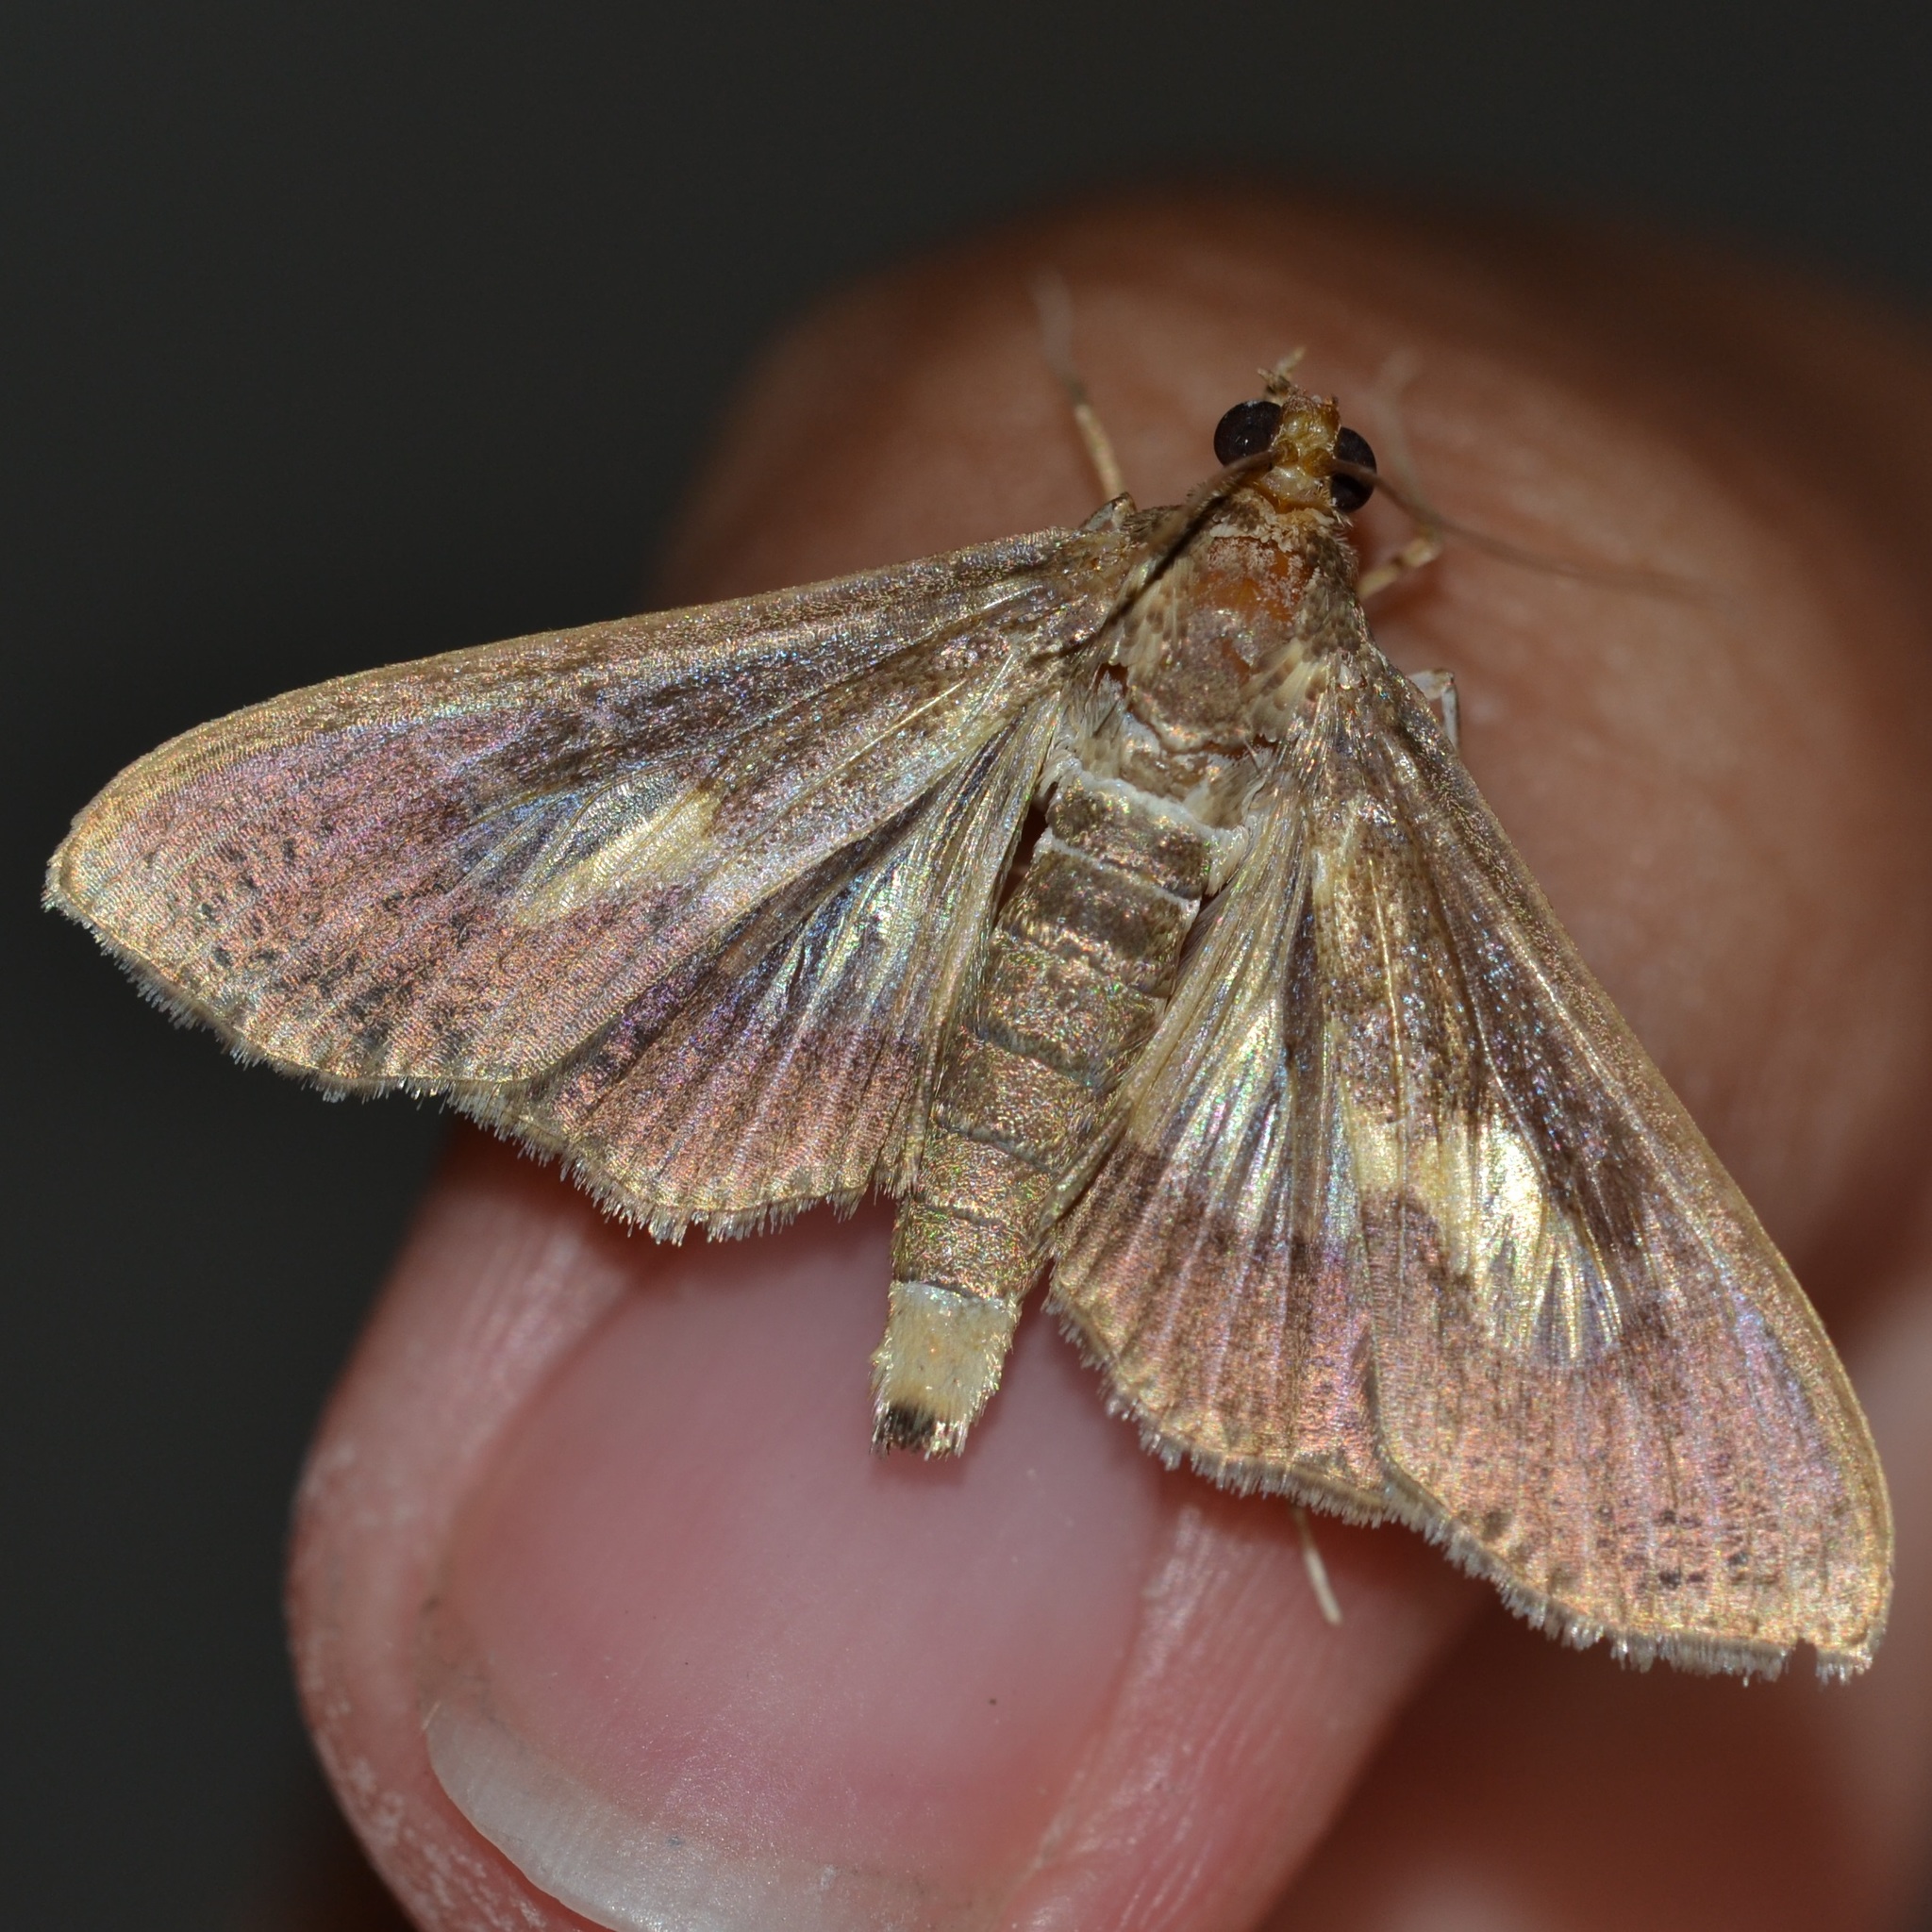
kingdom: Animalia
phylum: Arthropoda
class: Insecta
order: Lepidoptera
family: Crambidae
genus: Cryptographis
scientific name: Cryptographis nitidalis
